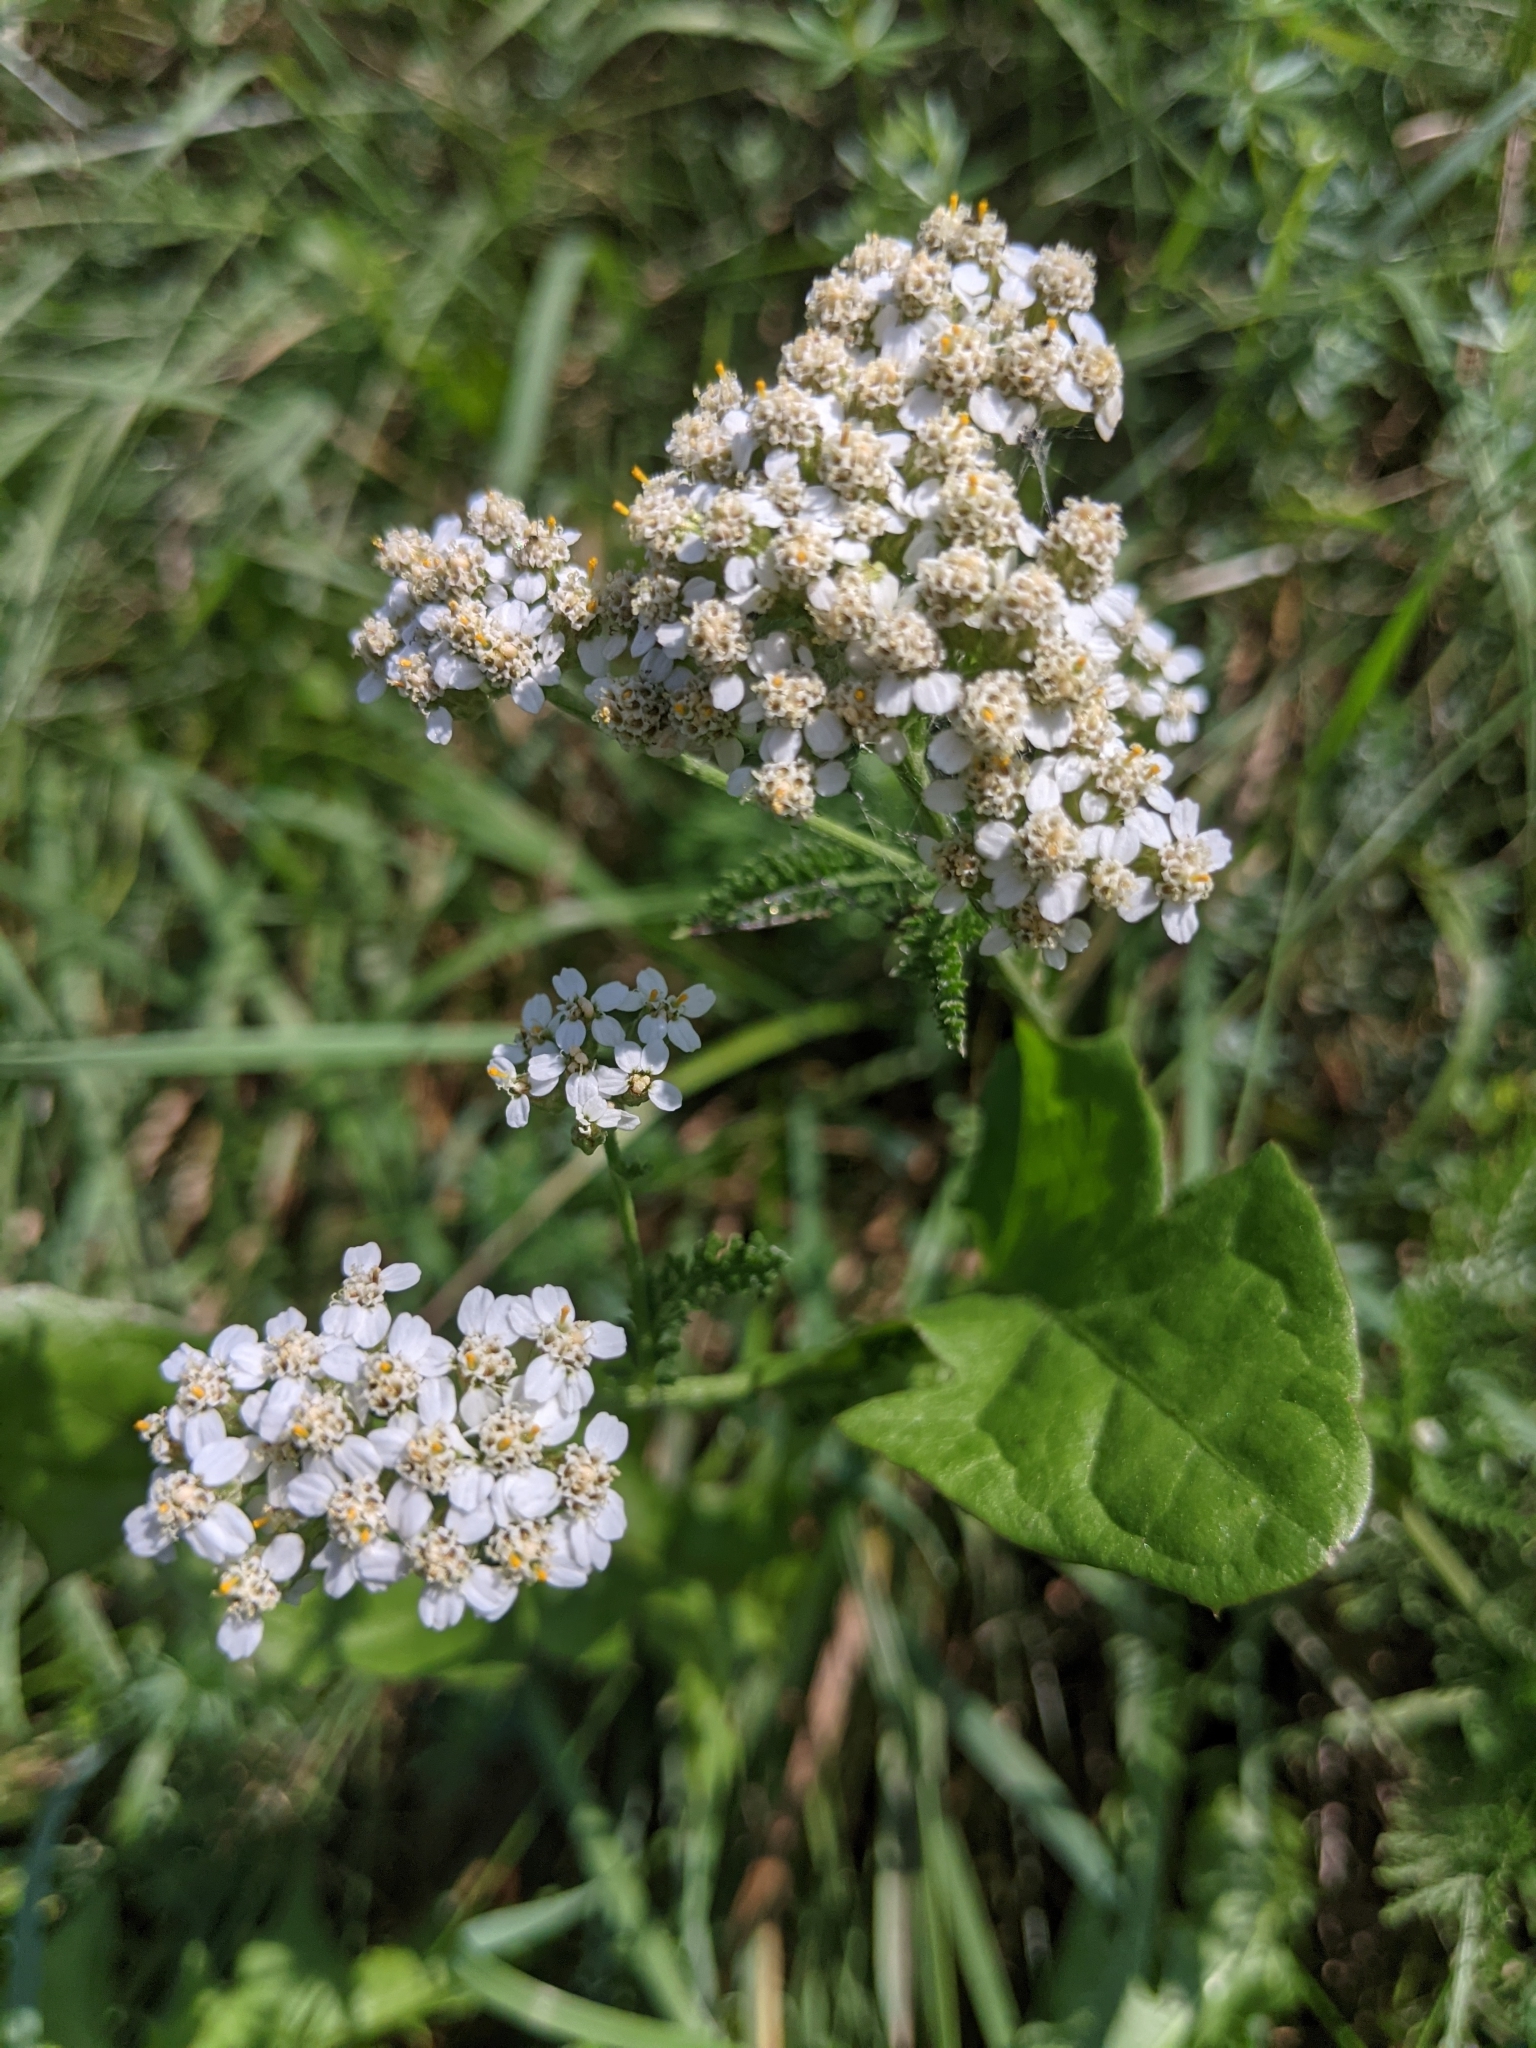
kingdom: Plantae
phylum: Tracheophyta
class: Magnoliopsida
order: Asterales
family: Asteraceae
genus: Achillea
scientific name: Achillea millefolium
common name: Yarrow
